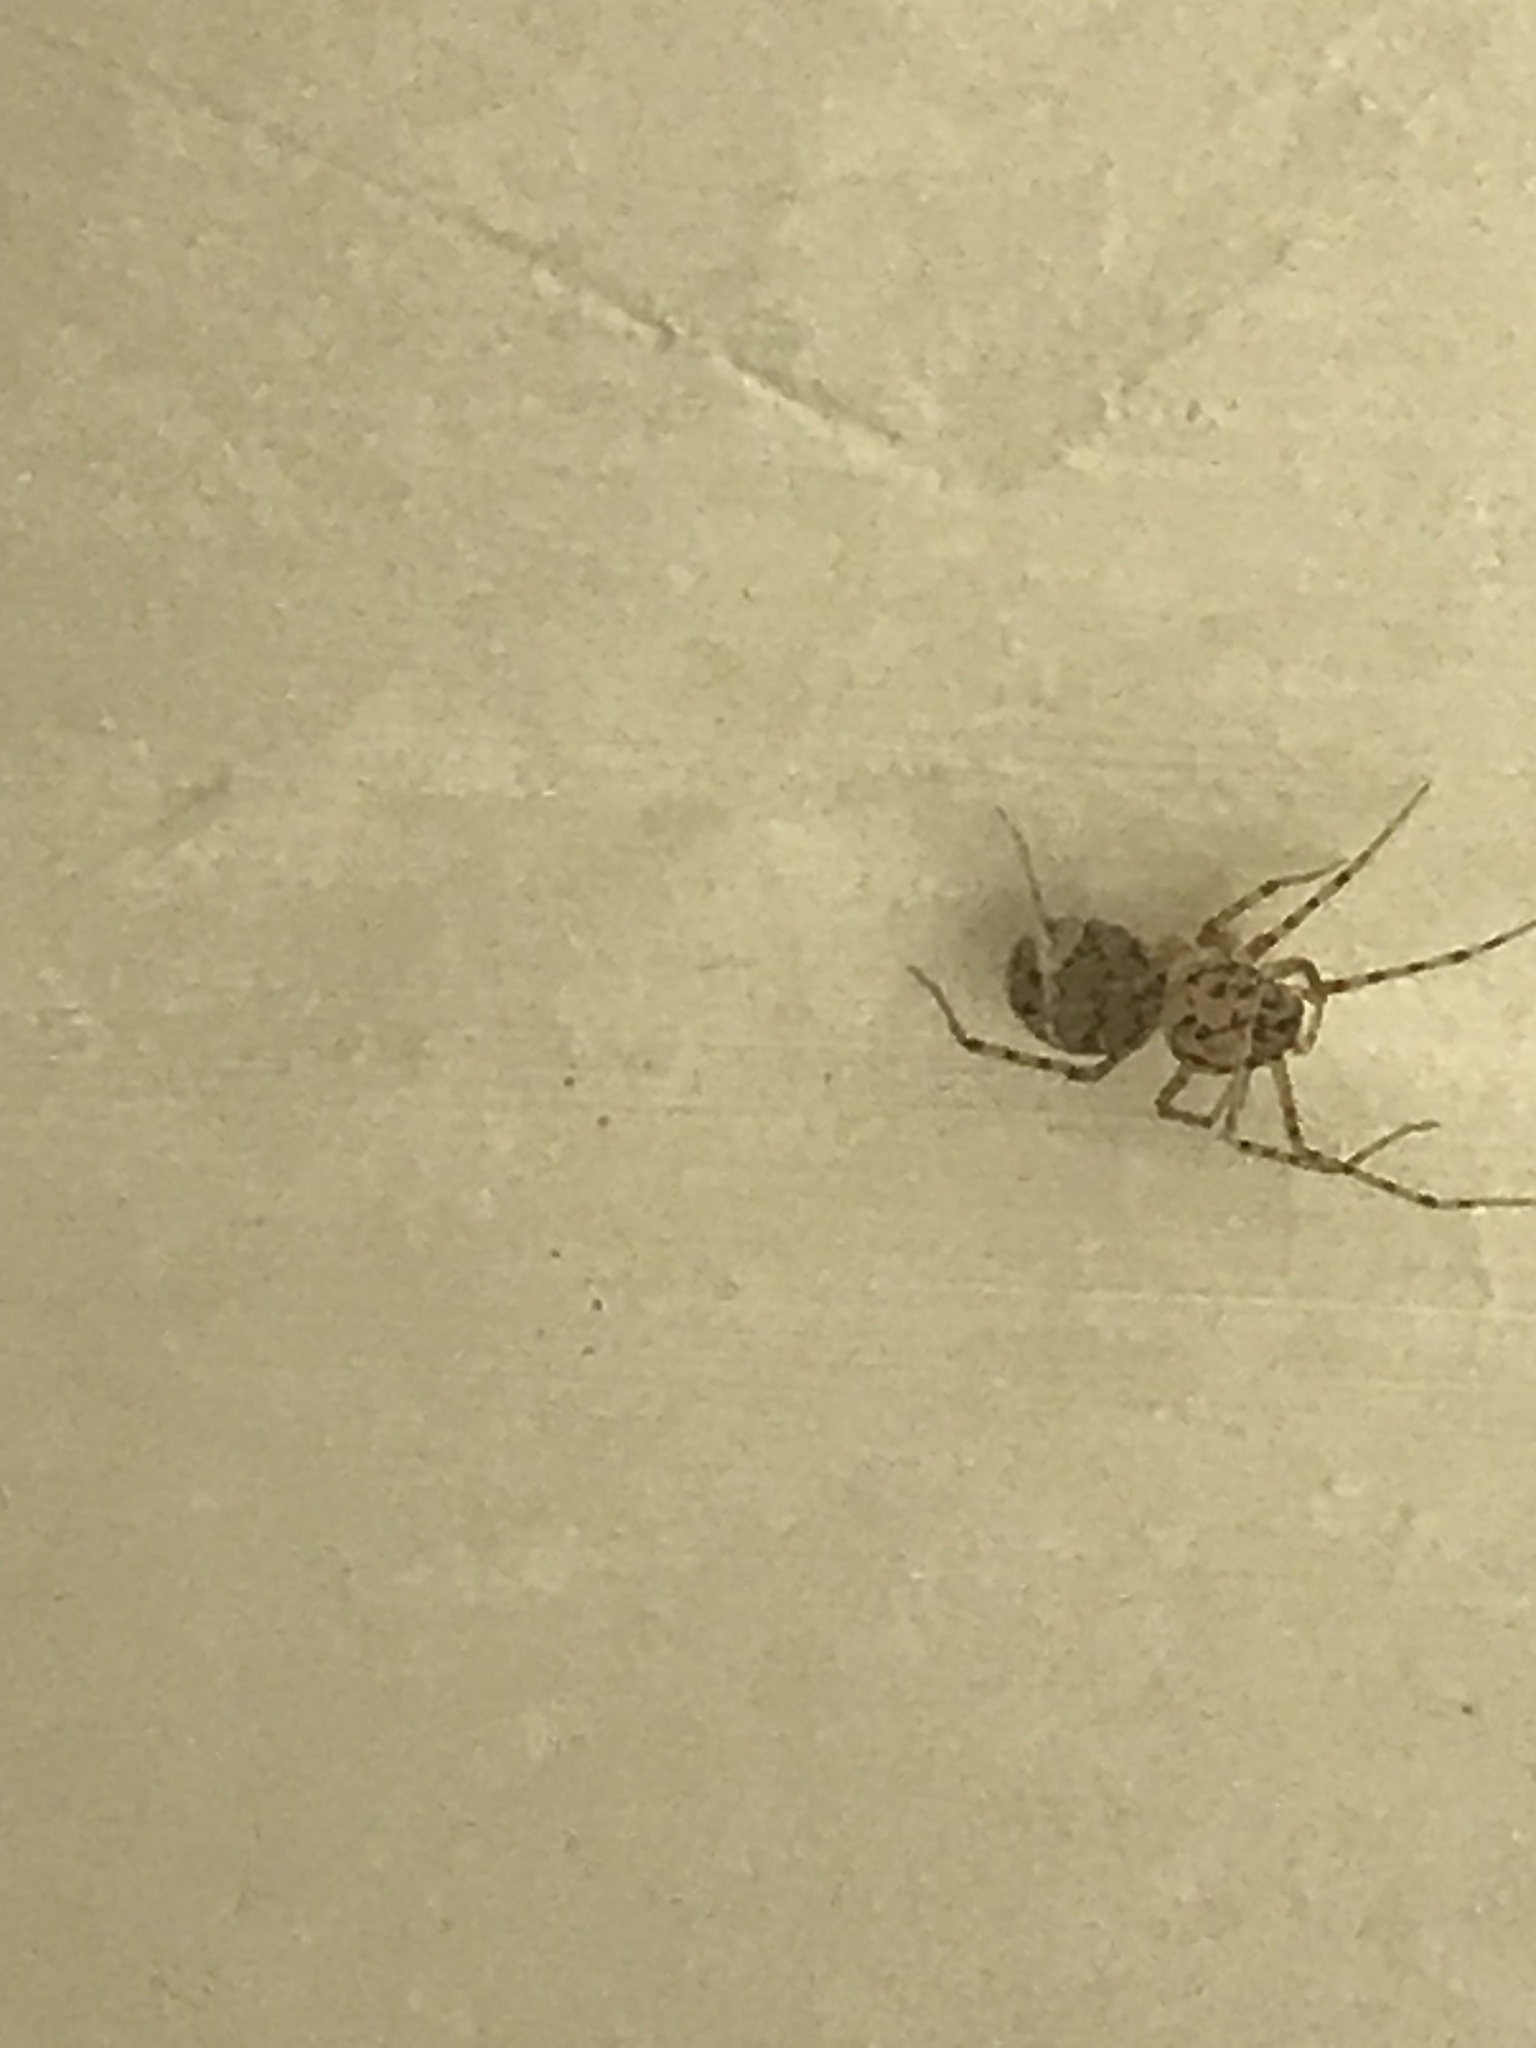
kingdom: Animalia
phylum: Arthropoda
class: Arachnida
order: Araneae
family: Scytodidae
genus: Scytodes
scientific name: Scytodes thoracica
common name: Spitting spider
